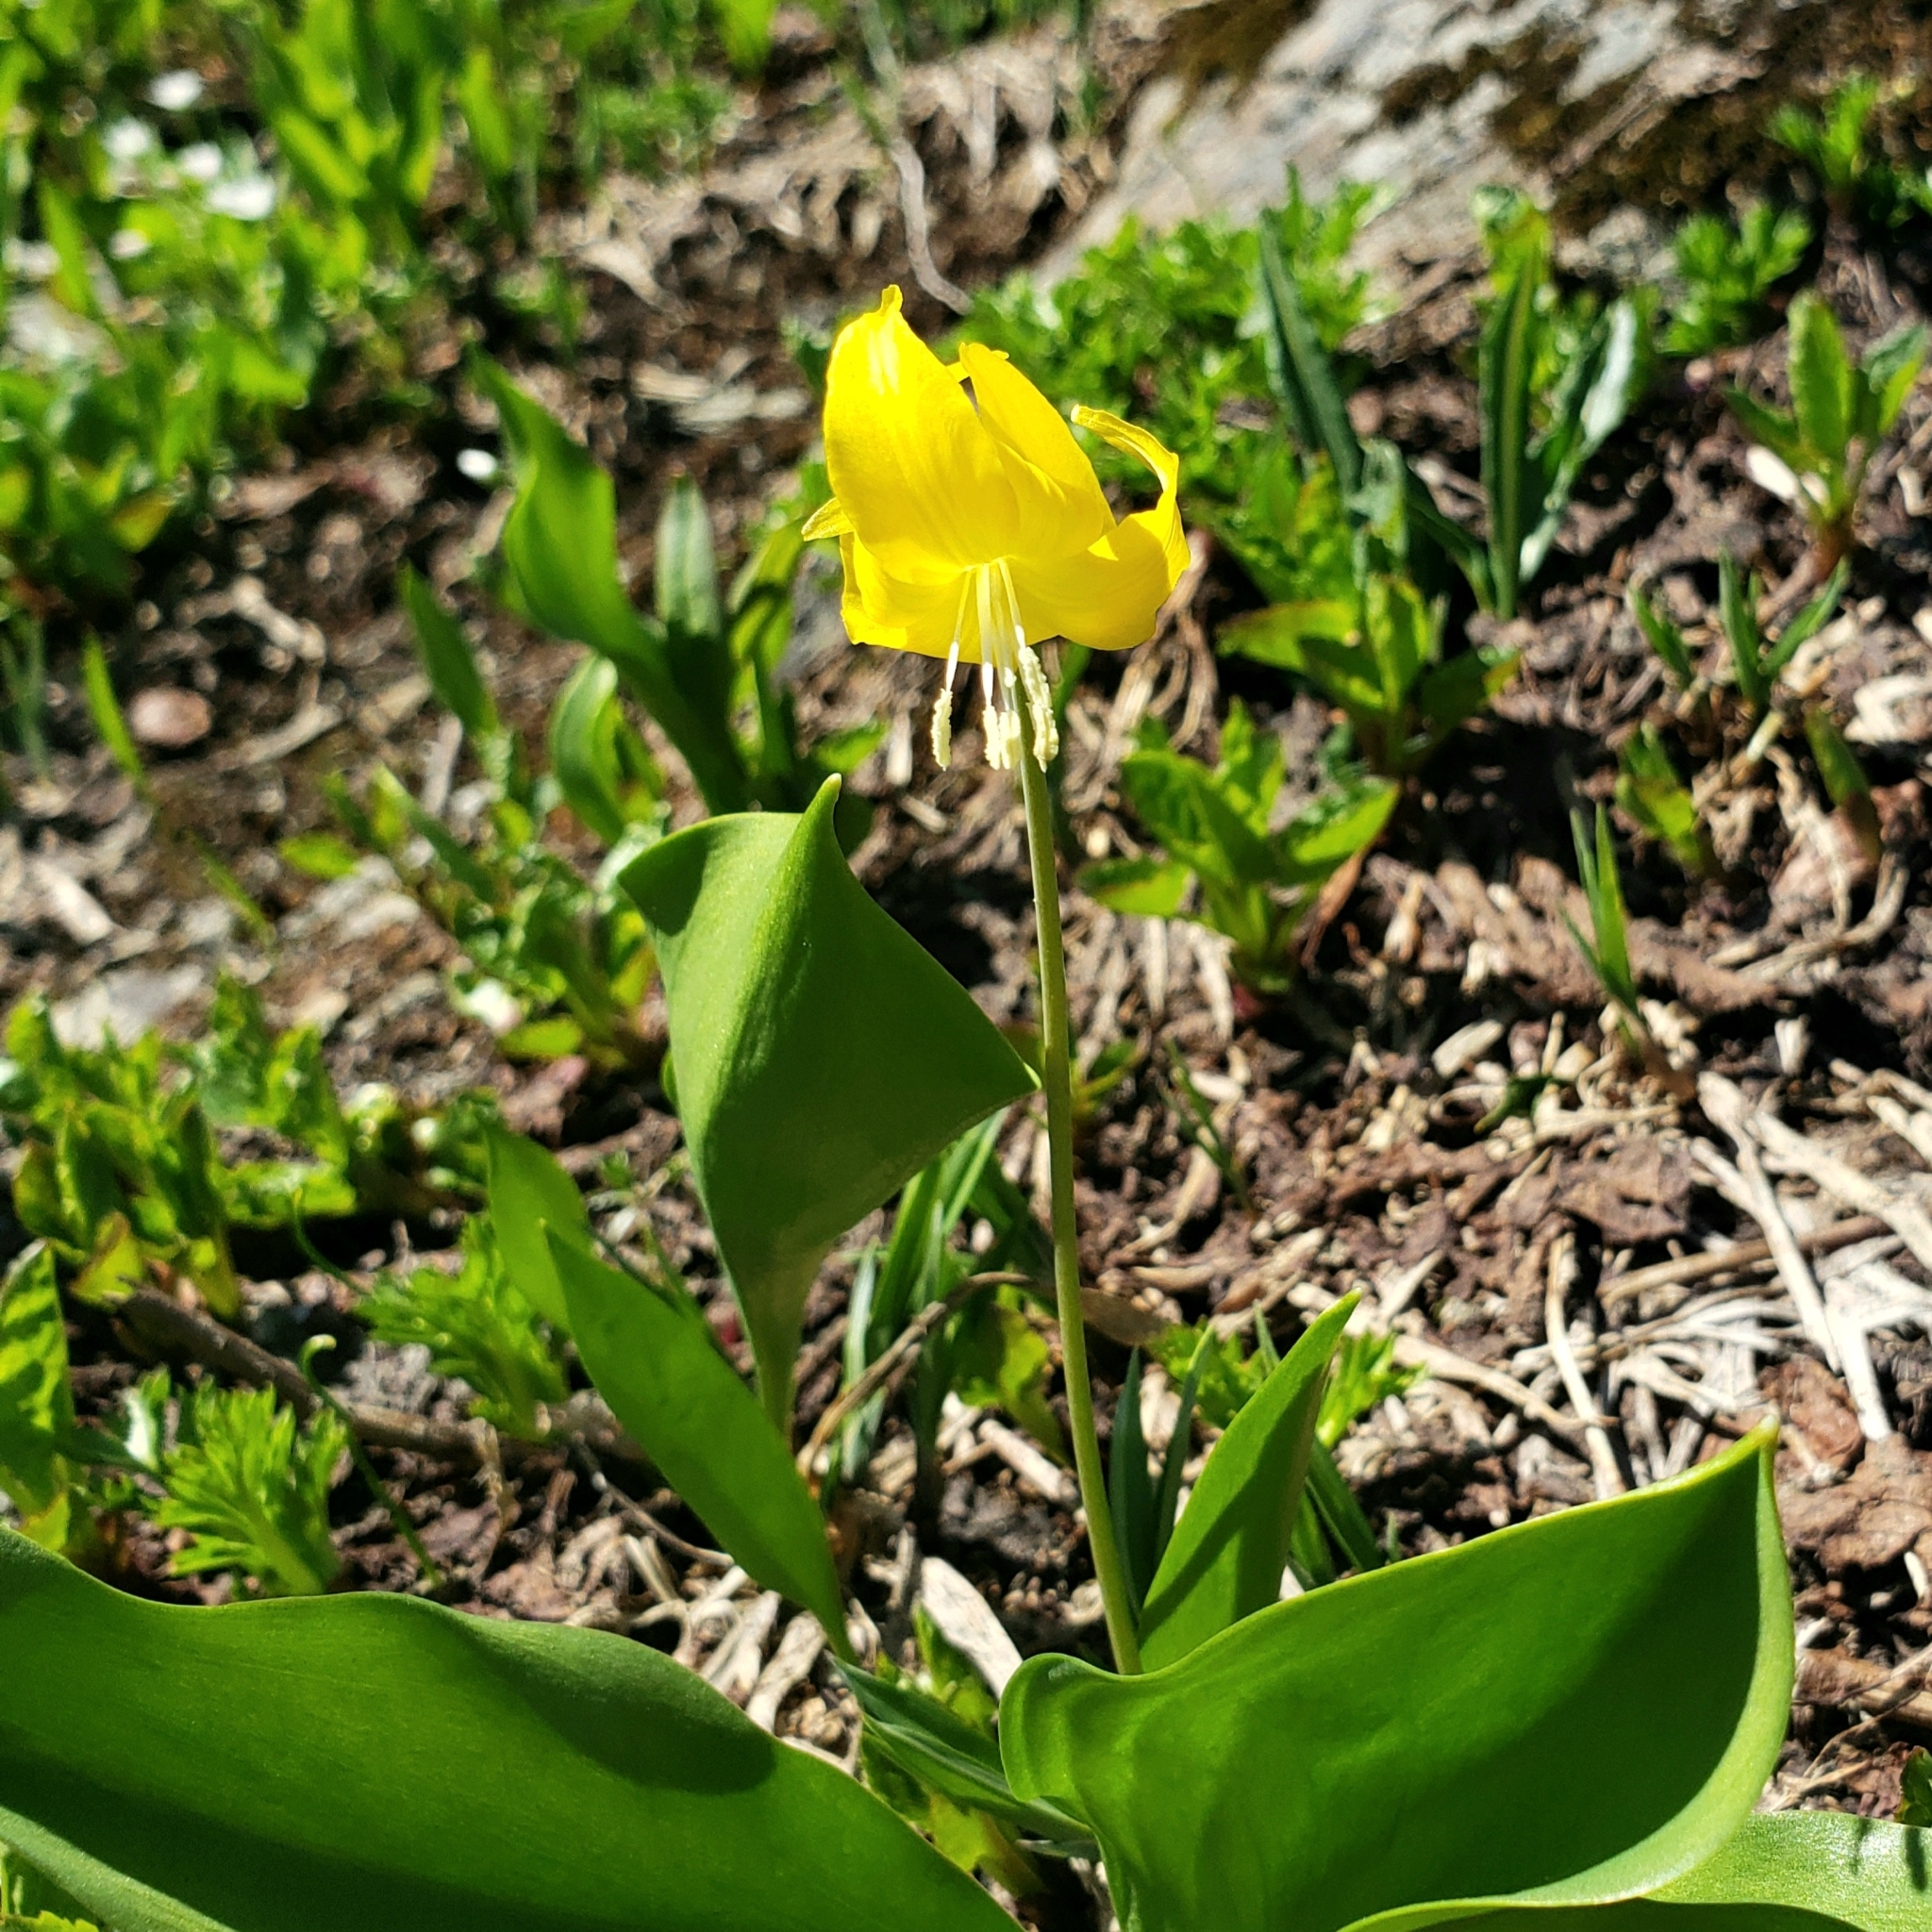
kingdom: Plantae
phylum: Tracheophyta
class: Liliopsida
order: Liliales
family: Liliaceae
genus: Erythronium
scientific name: Erythronium grandiflorum
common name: Avalanche-lily
